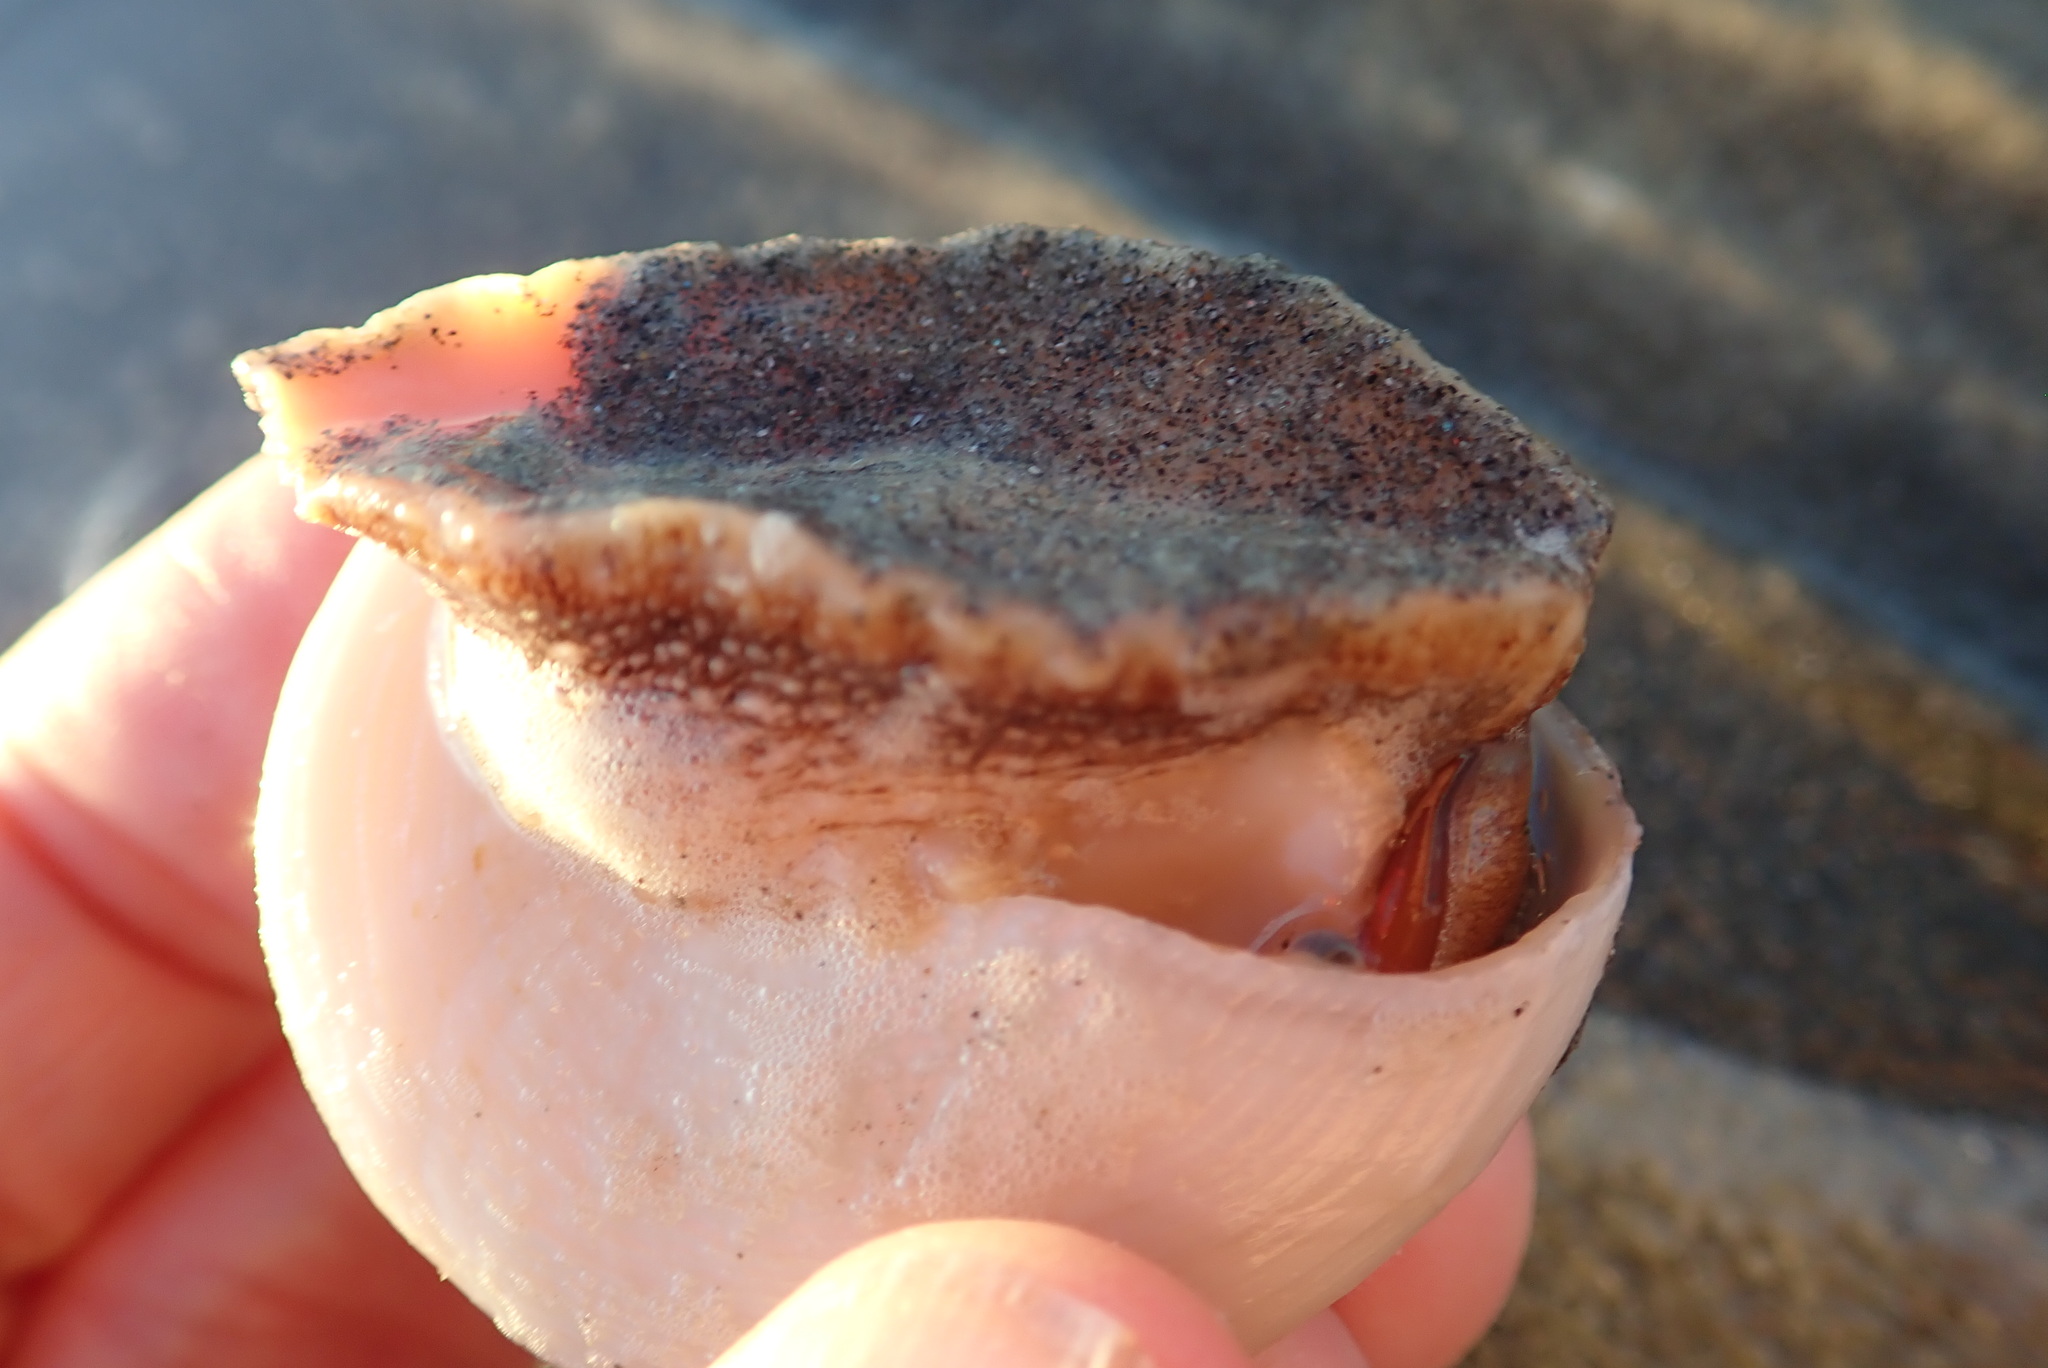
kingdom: Animalia
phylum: Mollusca
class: Gastropoda
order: Trochida
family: Calliostomatidae
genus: Maurea
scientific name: Maurea selecta
